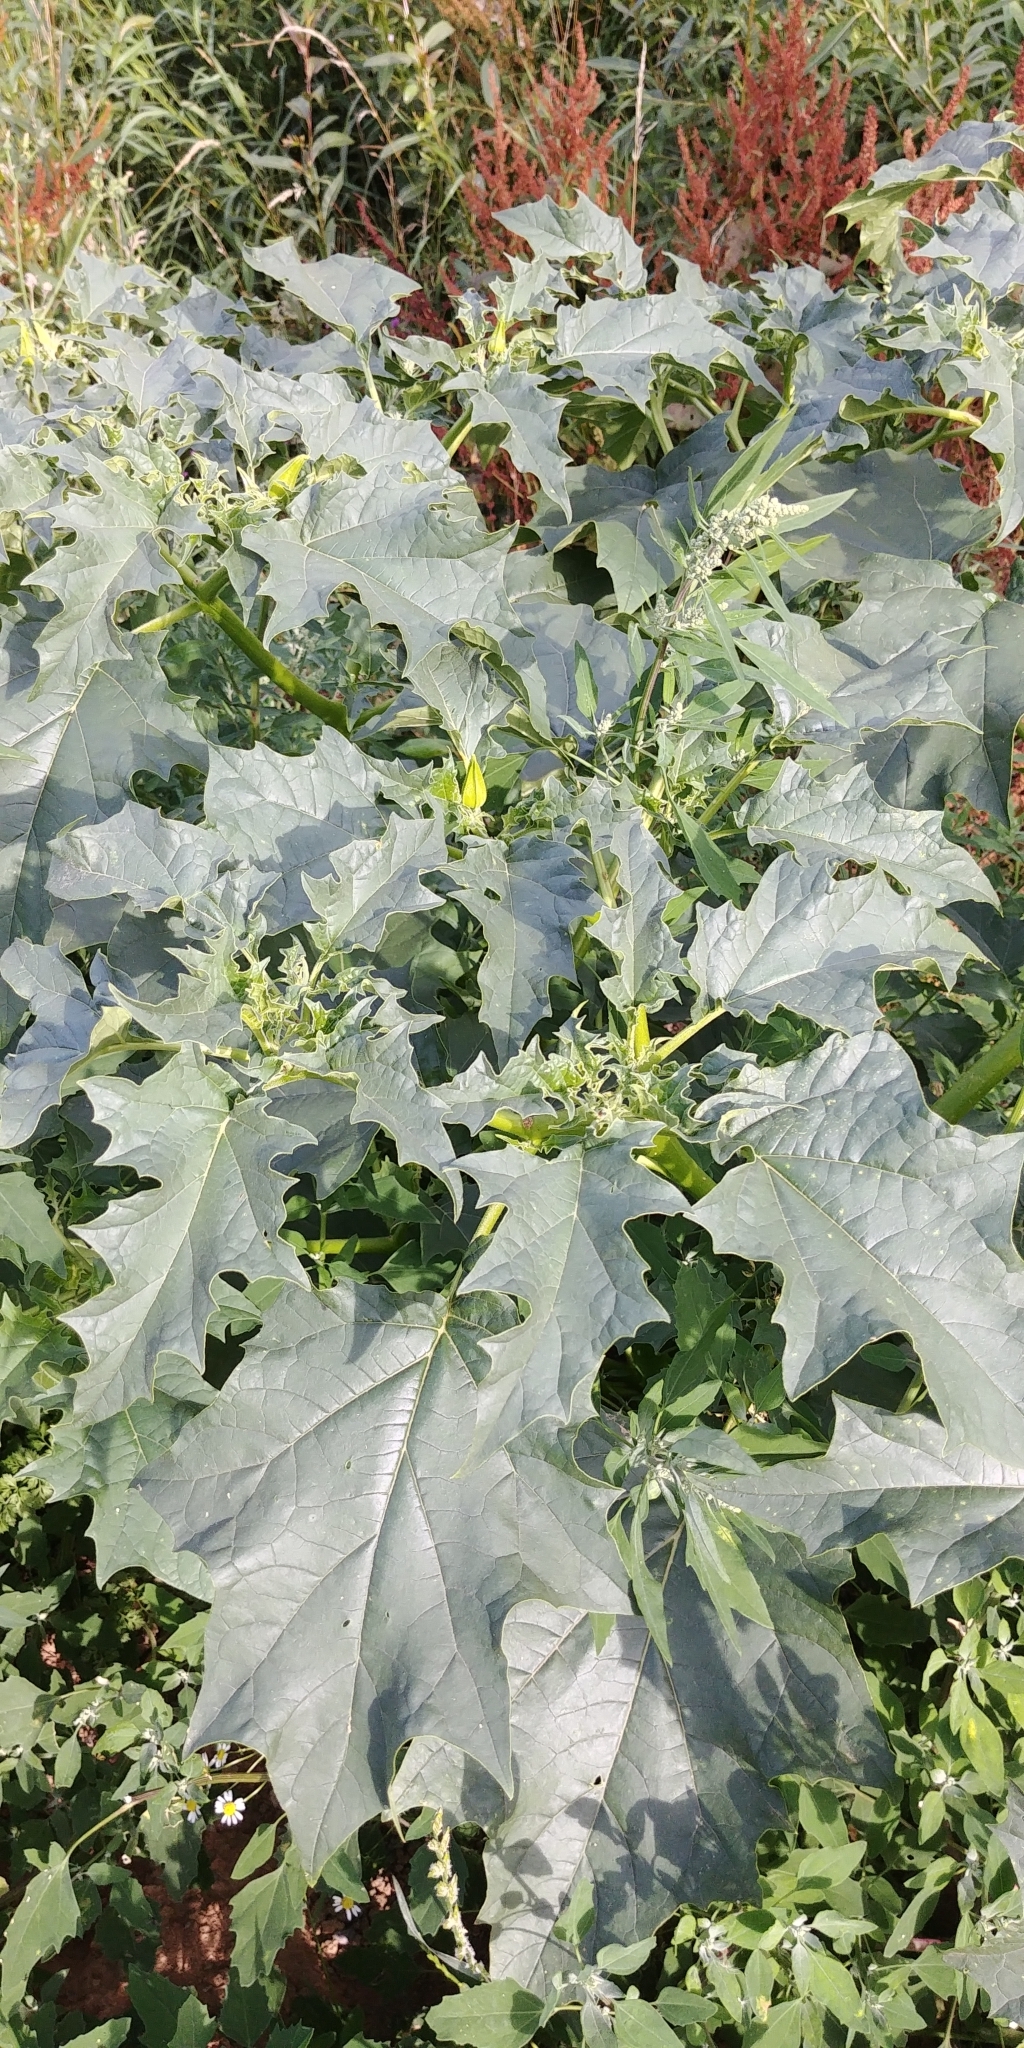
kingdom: Plantae
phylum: Tracheophyta
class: Magnoliopsida
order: Solanales
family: Solanaceae
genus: Datura
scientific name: Datura stramonium
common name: Thorn-apple
